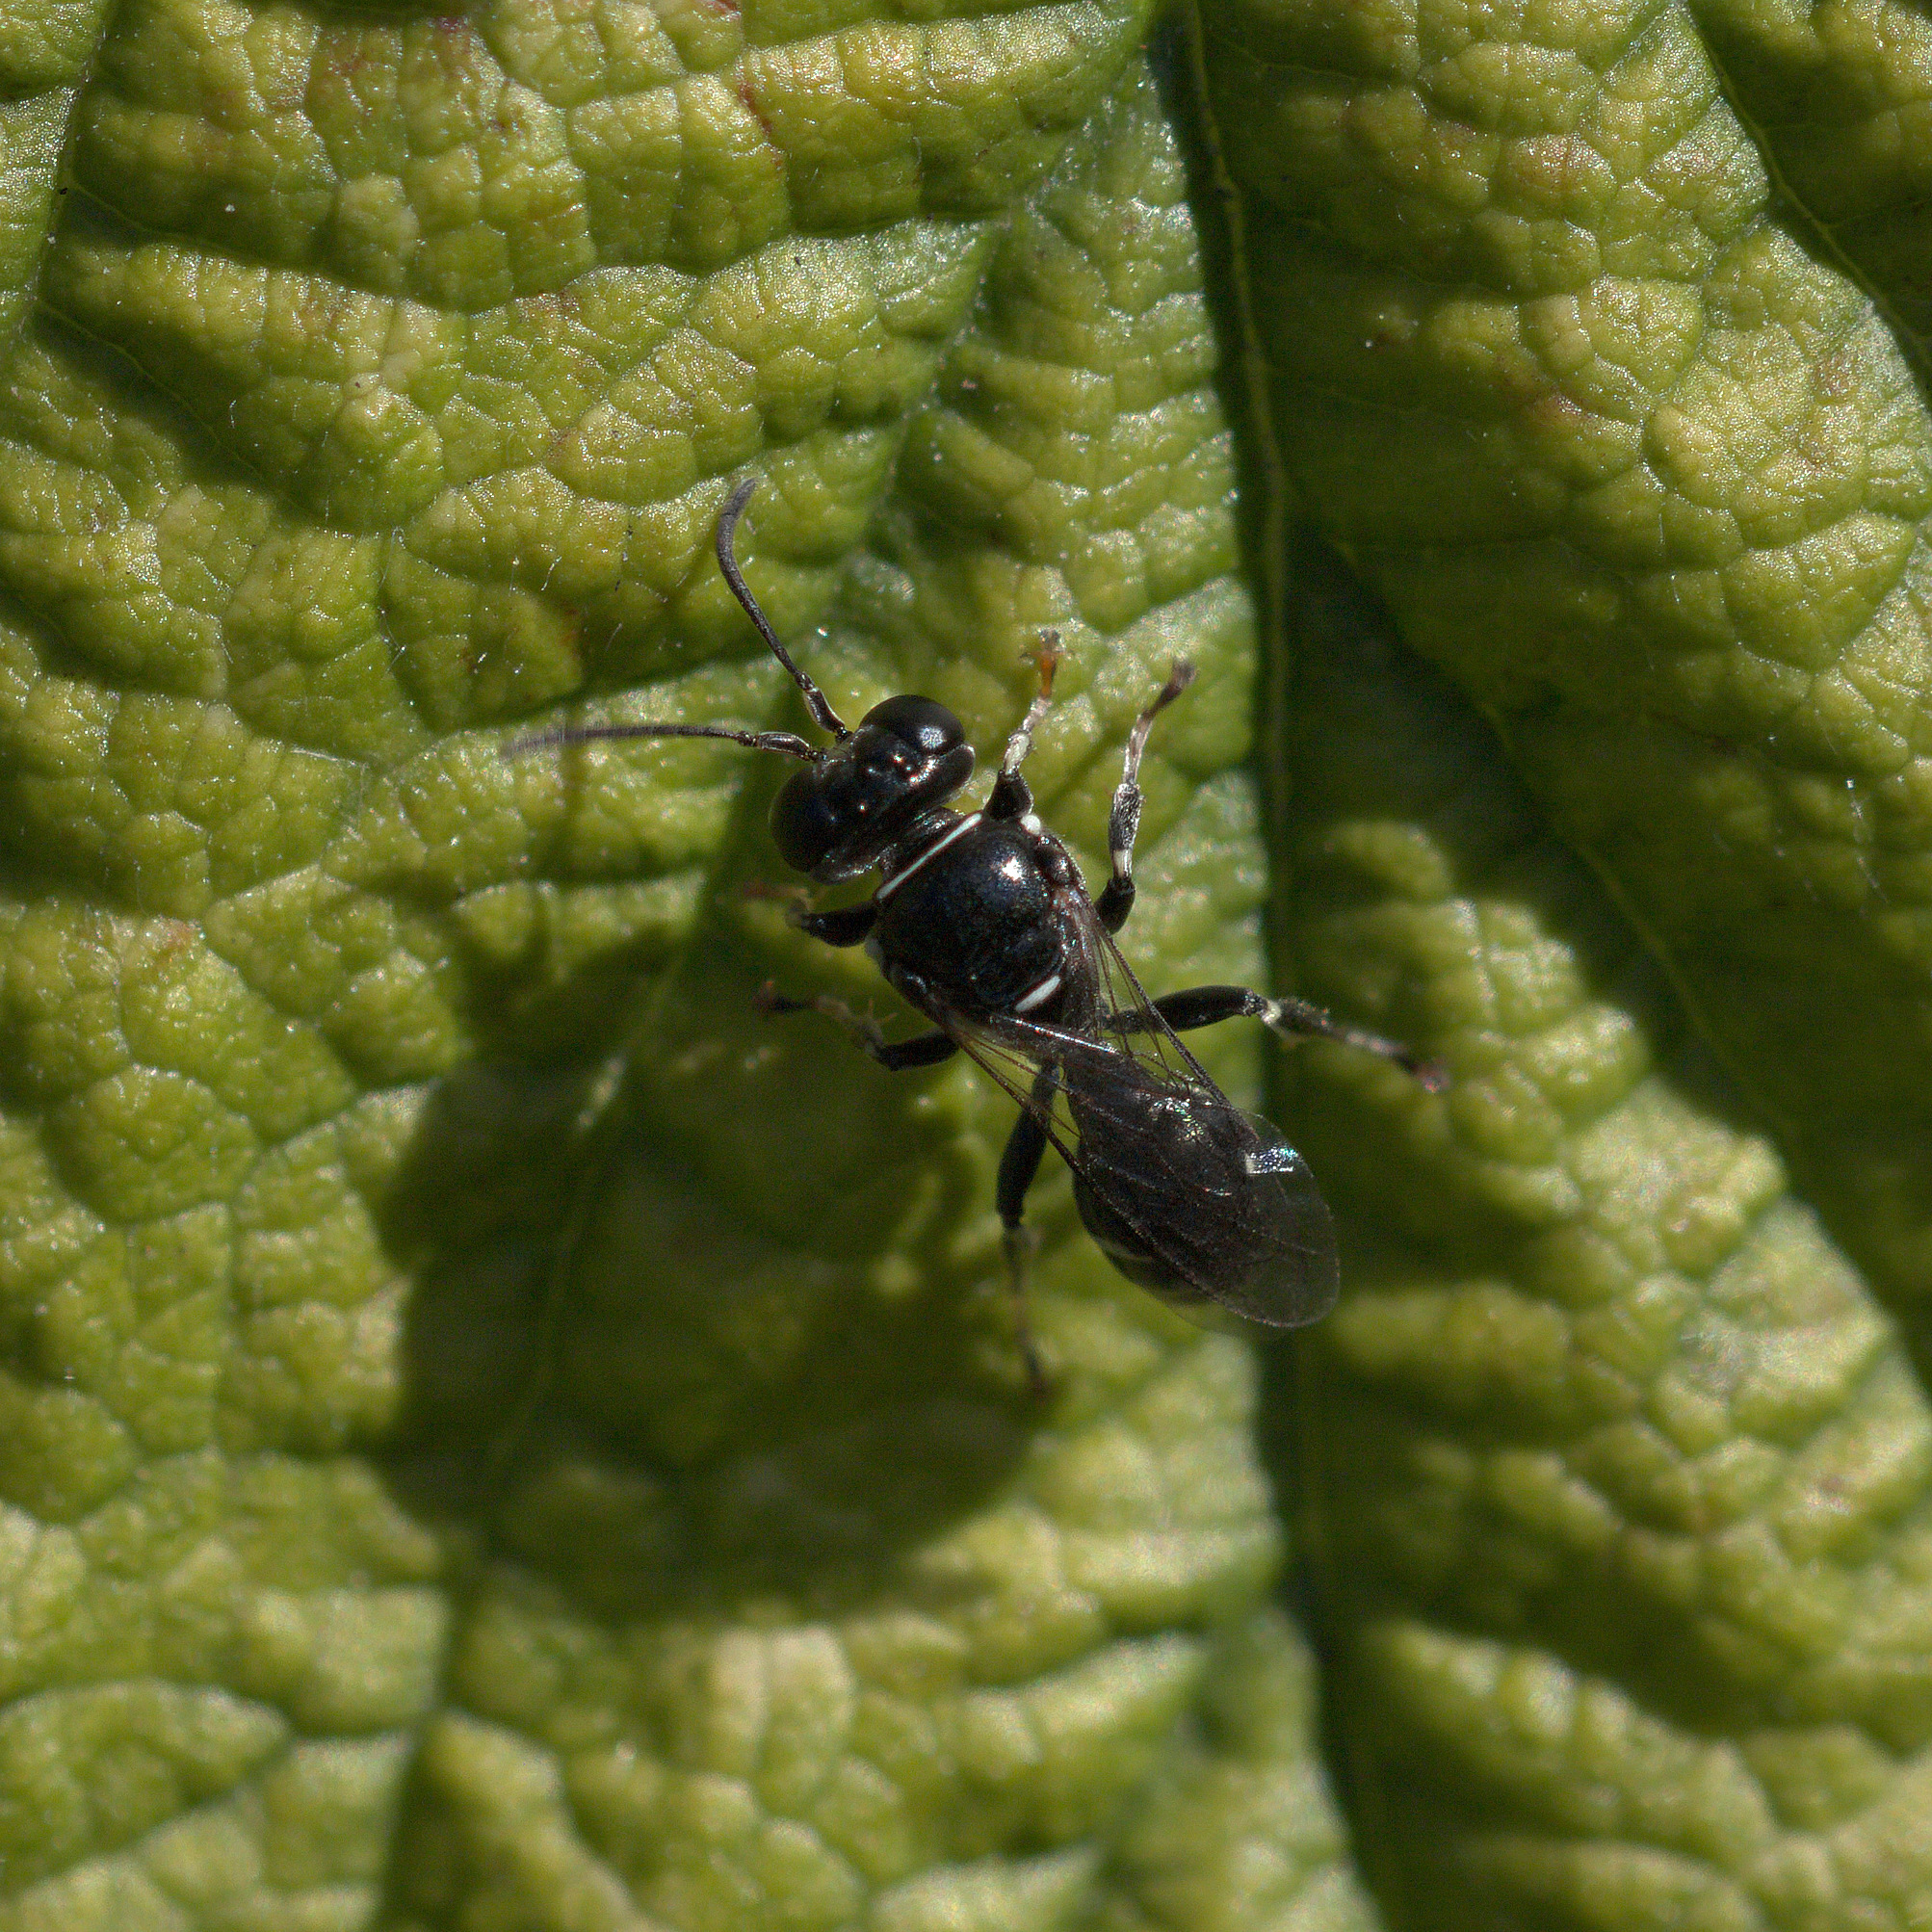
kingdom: Animalia
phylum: Arthropoda
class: Insecta
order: Hymenoptera
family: Crabronidae
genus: Clitemnestra
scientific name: Clitemnestra bipunctata
